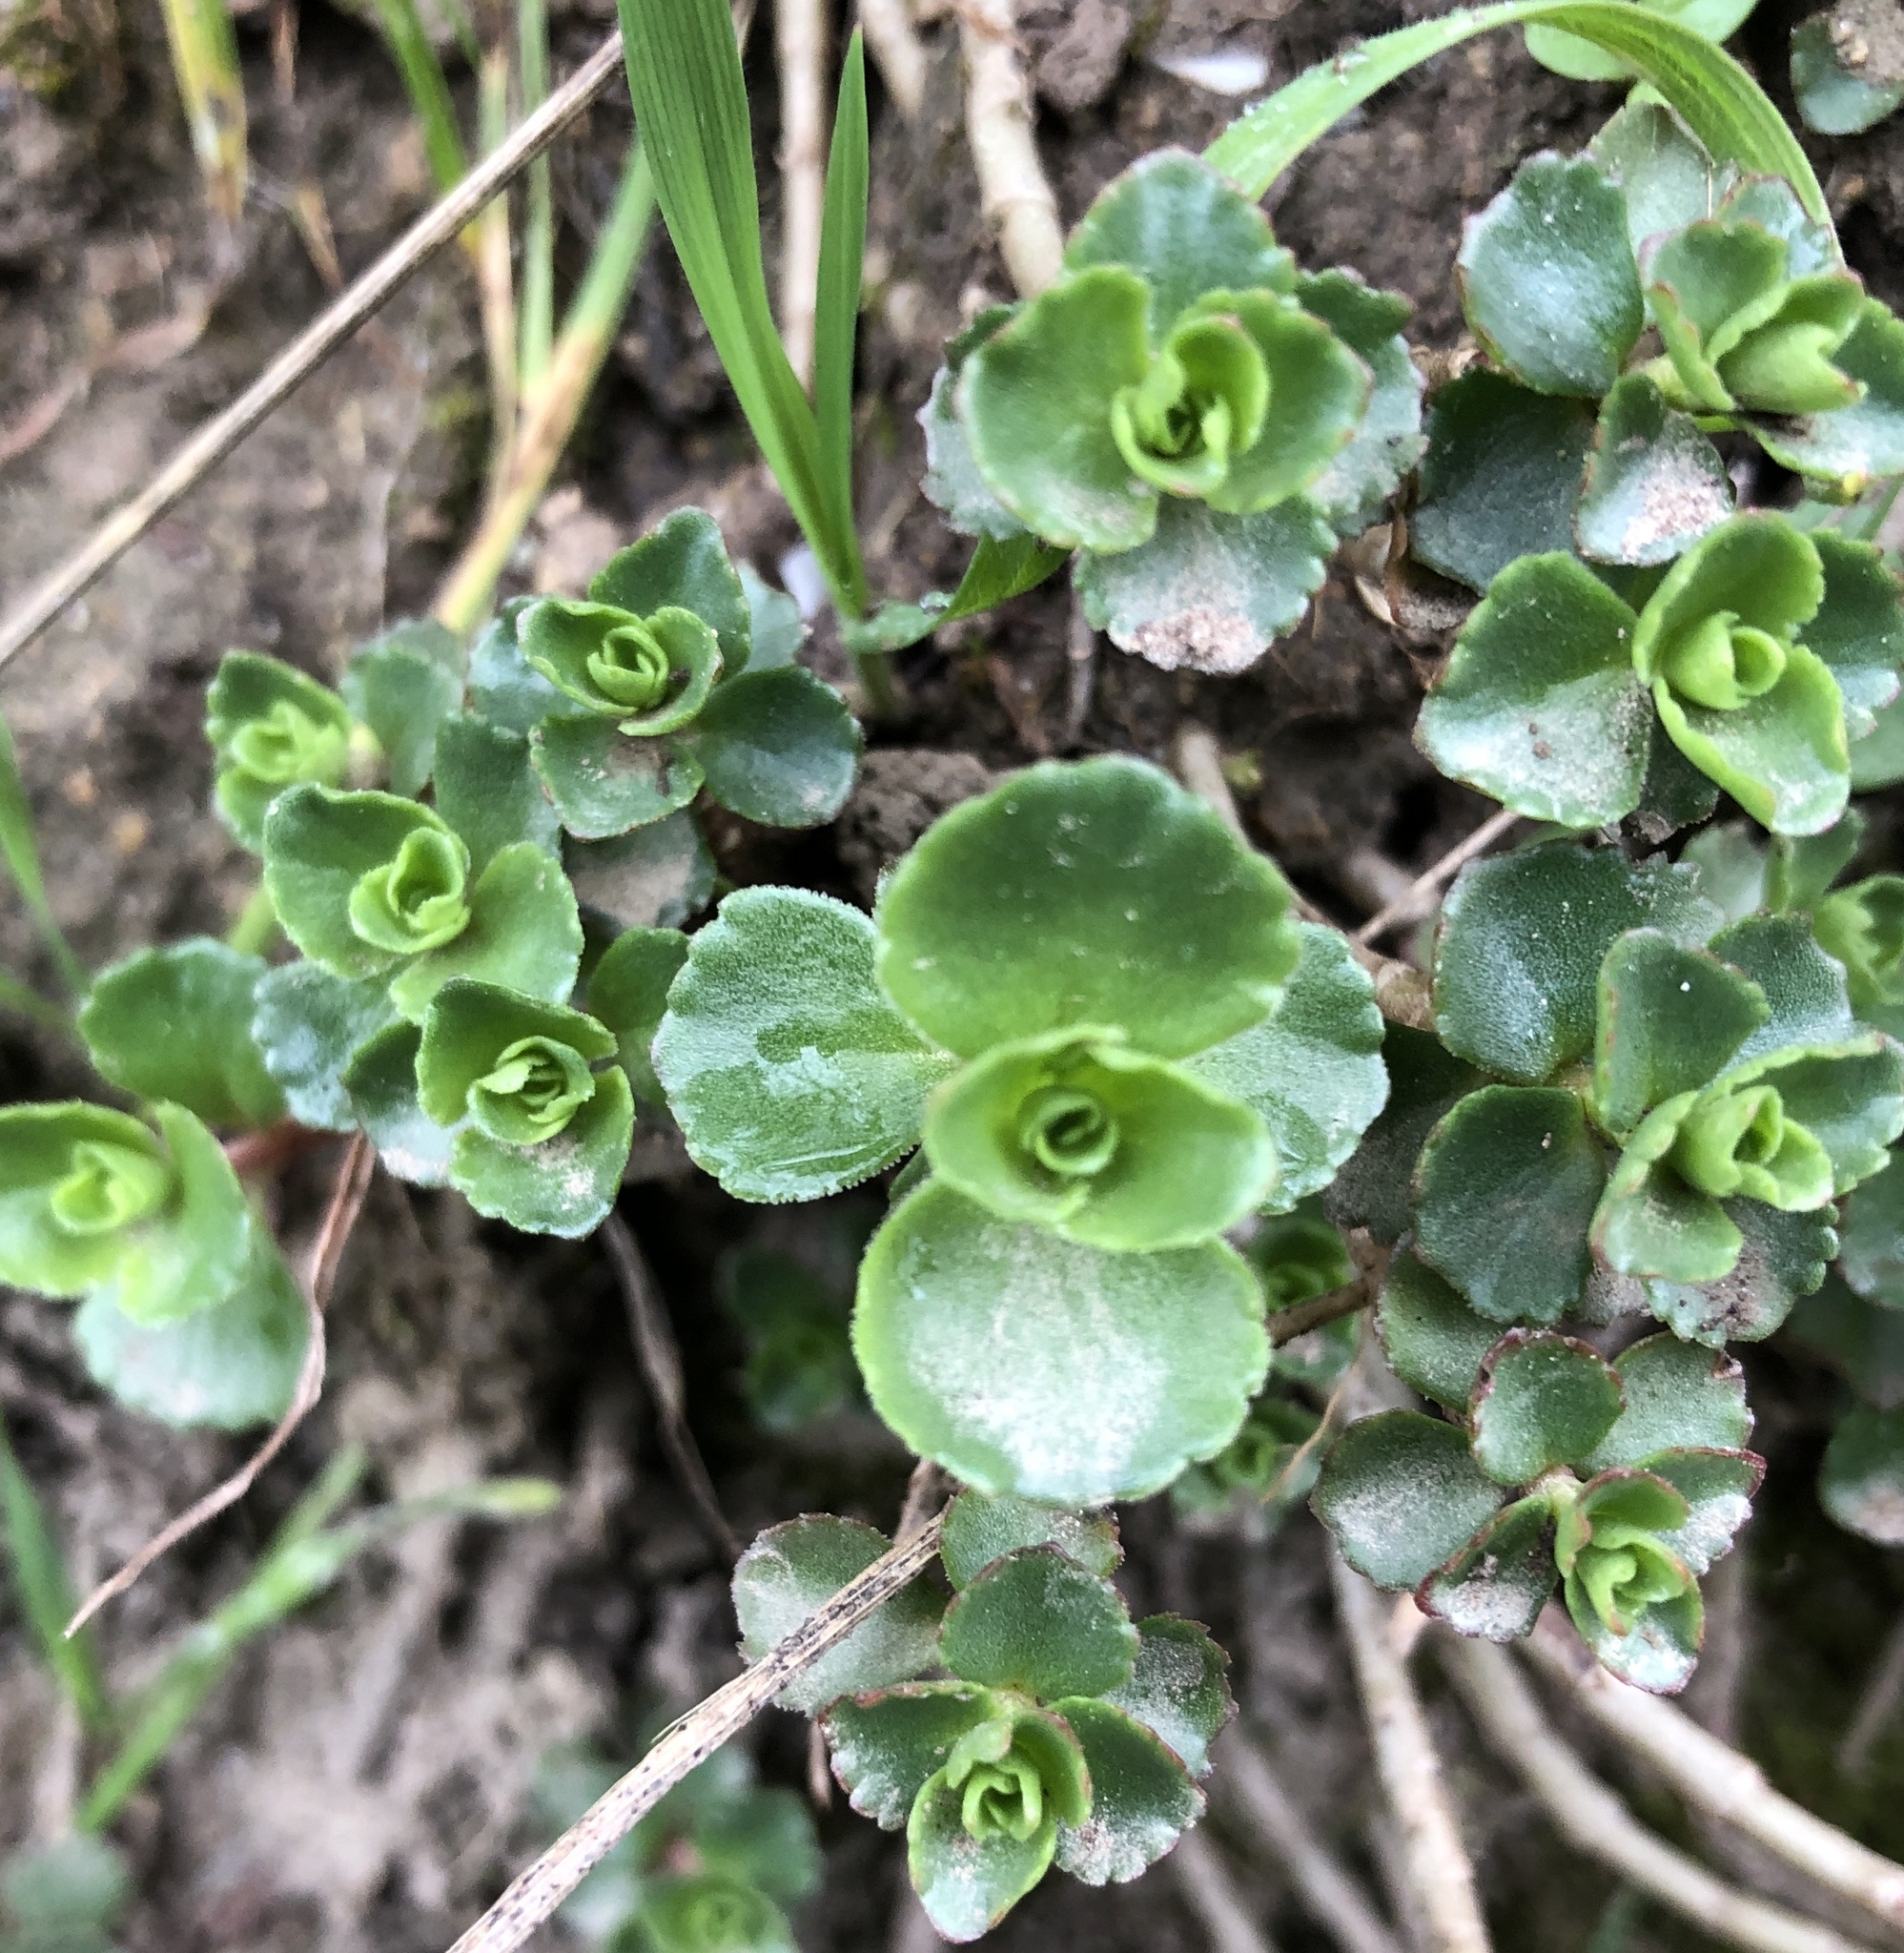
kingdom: Plantae
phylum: Tracheophyta
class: Magnoliopsida
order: Saxifragales
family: Crassulaceae
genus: Phedimus
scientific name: Phedimus spurius
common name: Caucasian stonecrop
